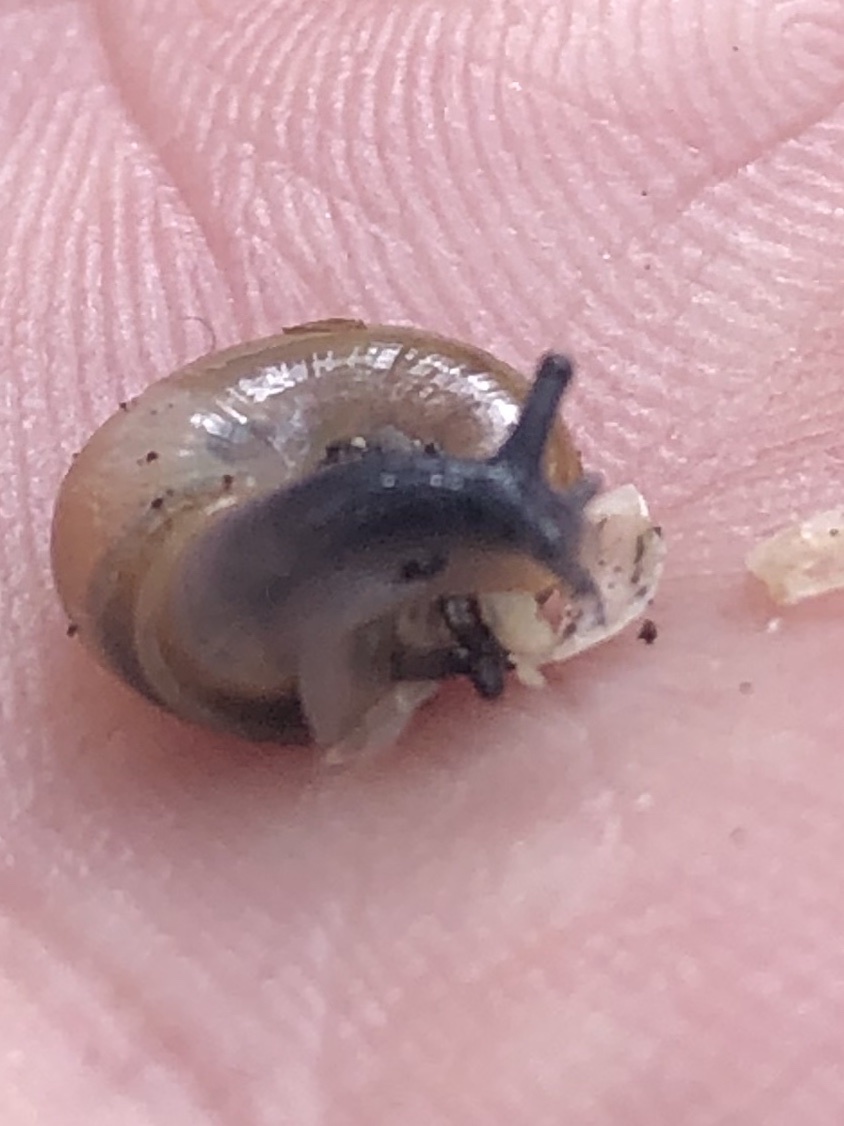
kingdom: Animalia
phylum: Mollusca
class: Gastropoda
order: Stylommatophora
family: Oxychilidae
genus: Oxychilus
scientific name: Oxychilus
